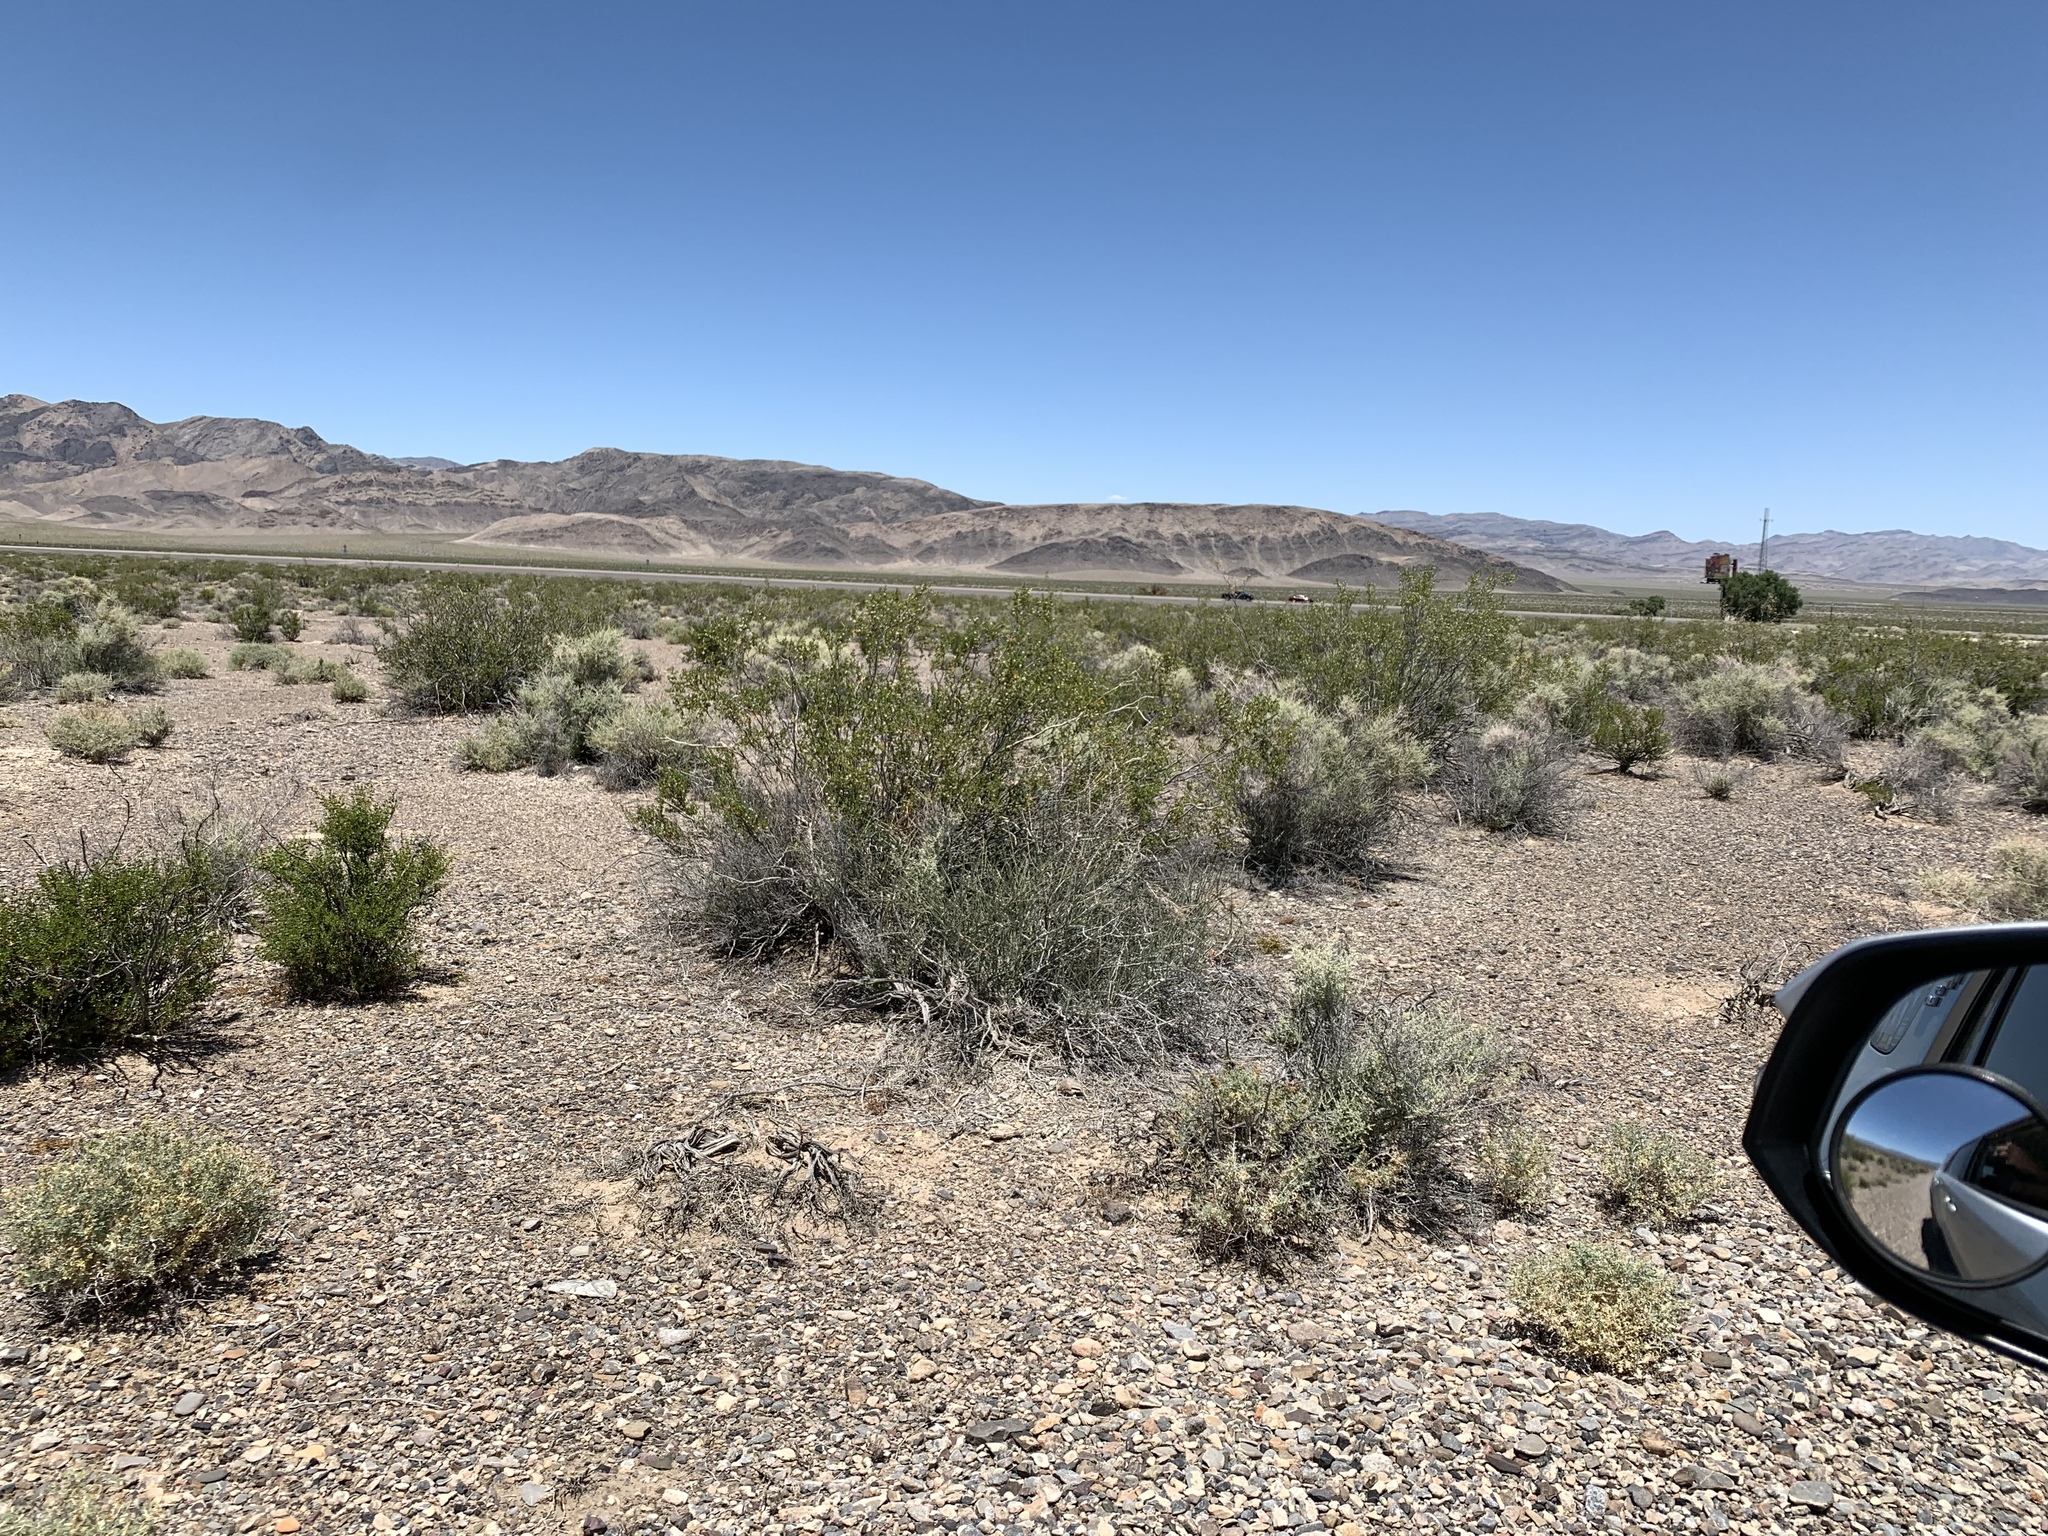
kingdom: Plantae
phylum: Tracheophyta
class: Magnoliopsida
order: Zygophyllales
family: Zygophyllaceae
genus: Larrea
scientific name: Larrea tridentata
